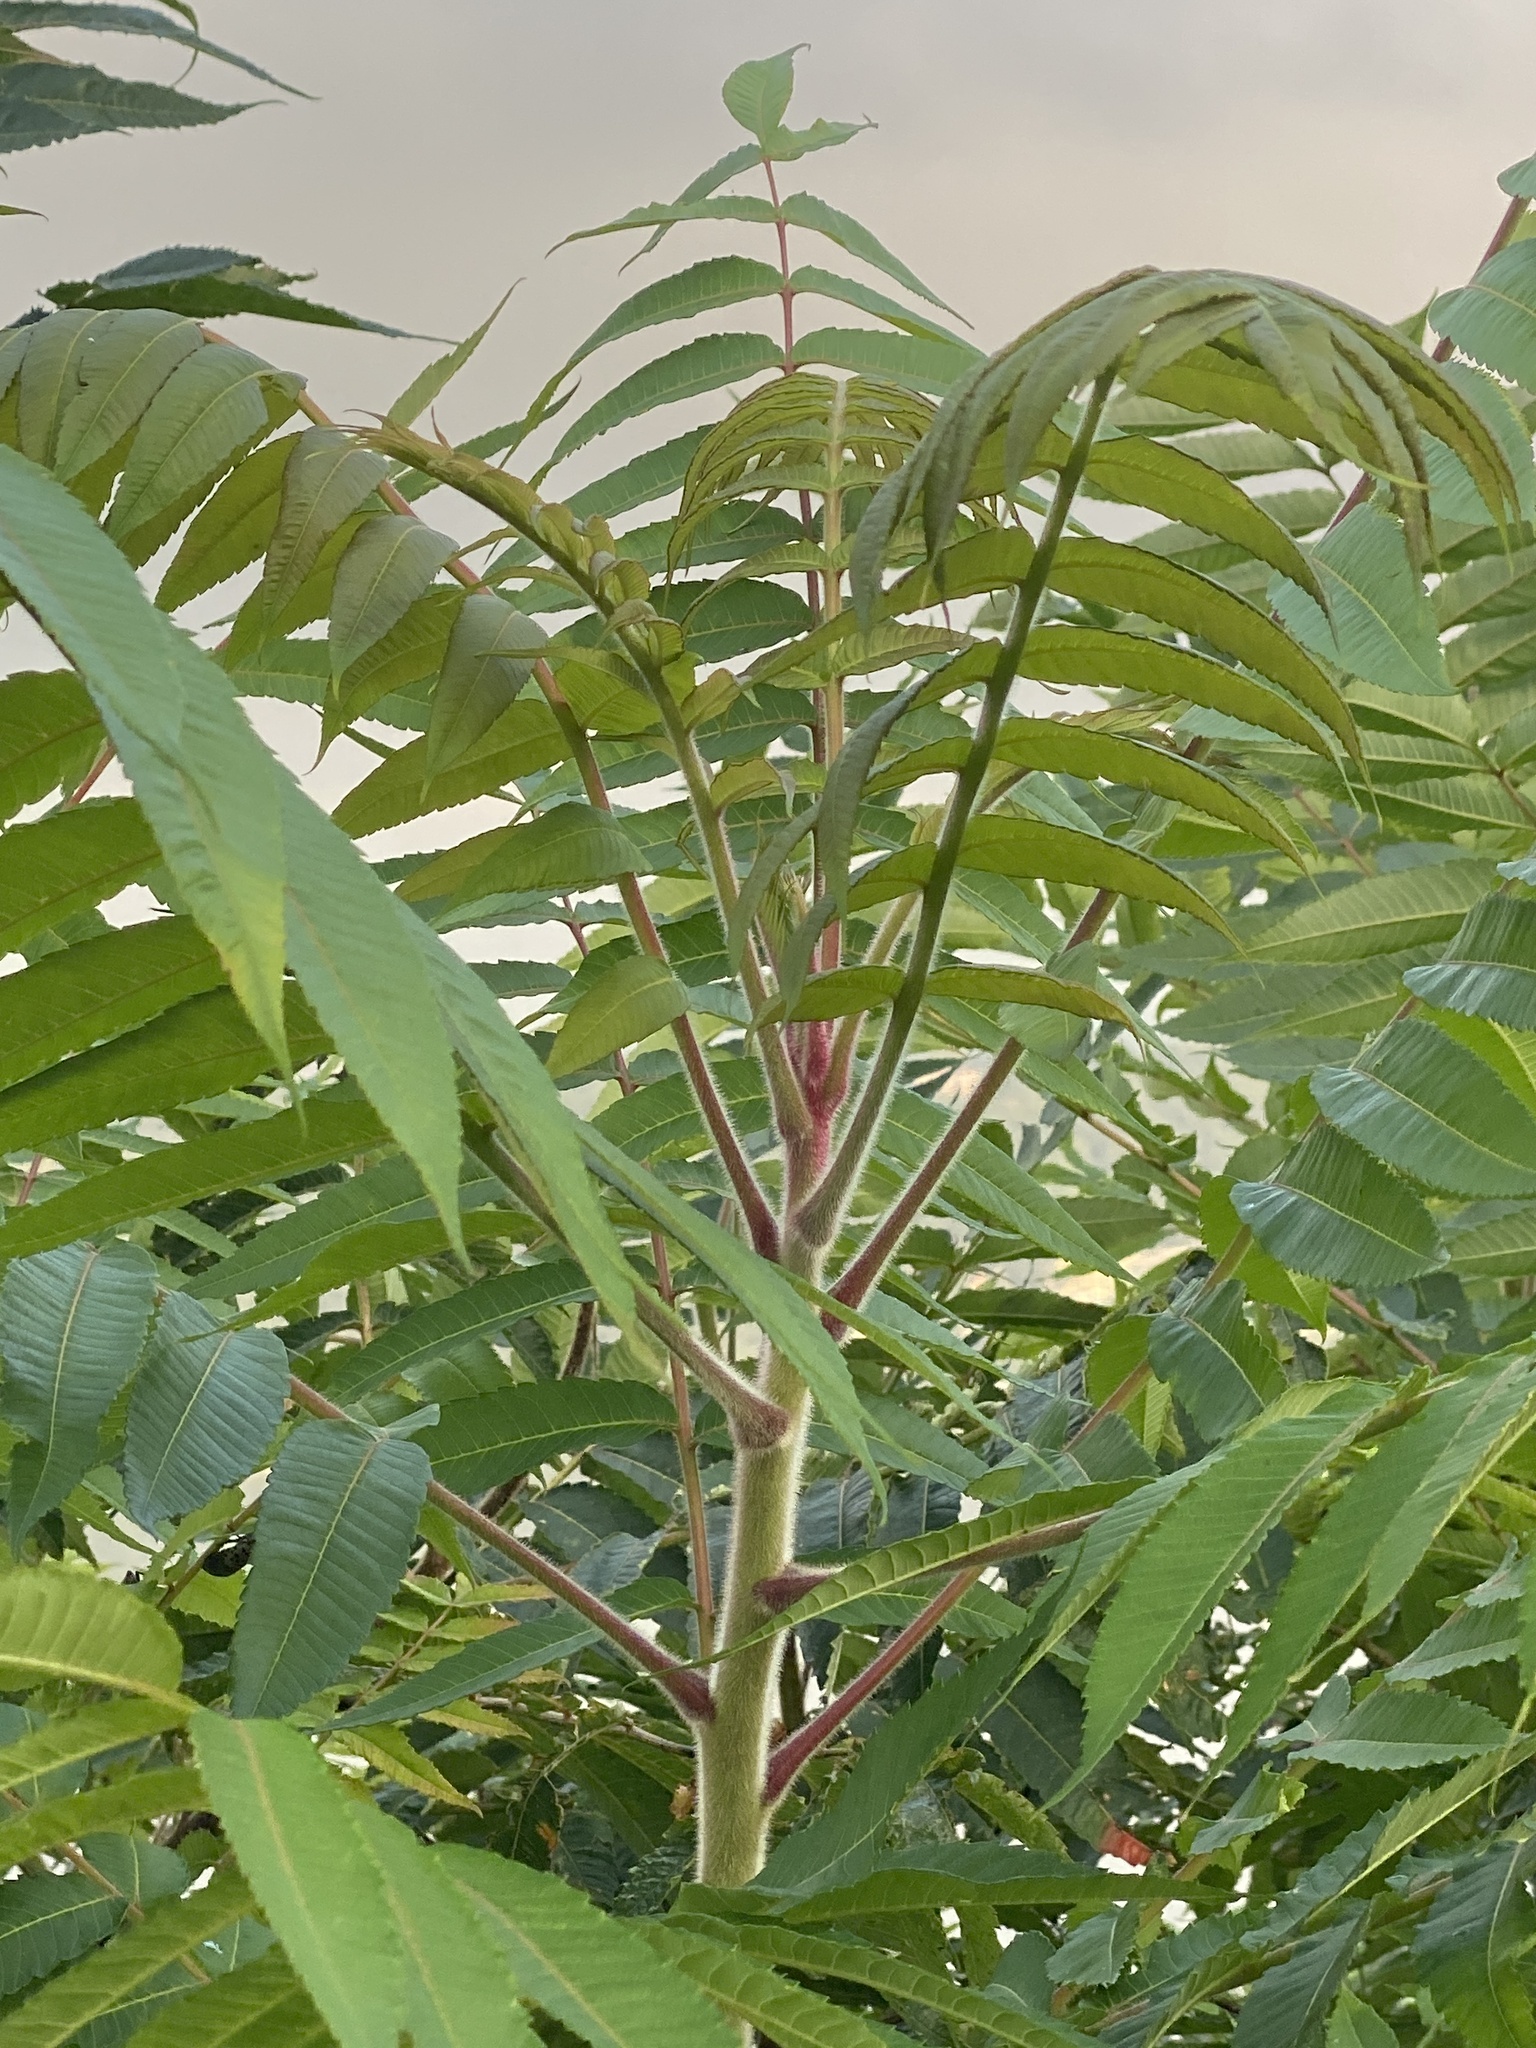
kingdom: Plantae
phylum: Tracheophyta
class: Magnoliopsida
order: Sapindales
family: Anacardiaceae
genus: Rhus
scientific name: Rhus typhina
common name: Staghorn sumac
